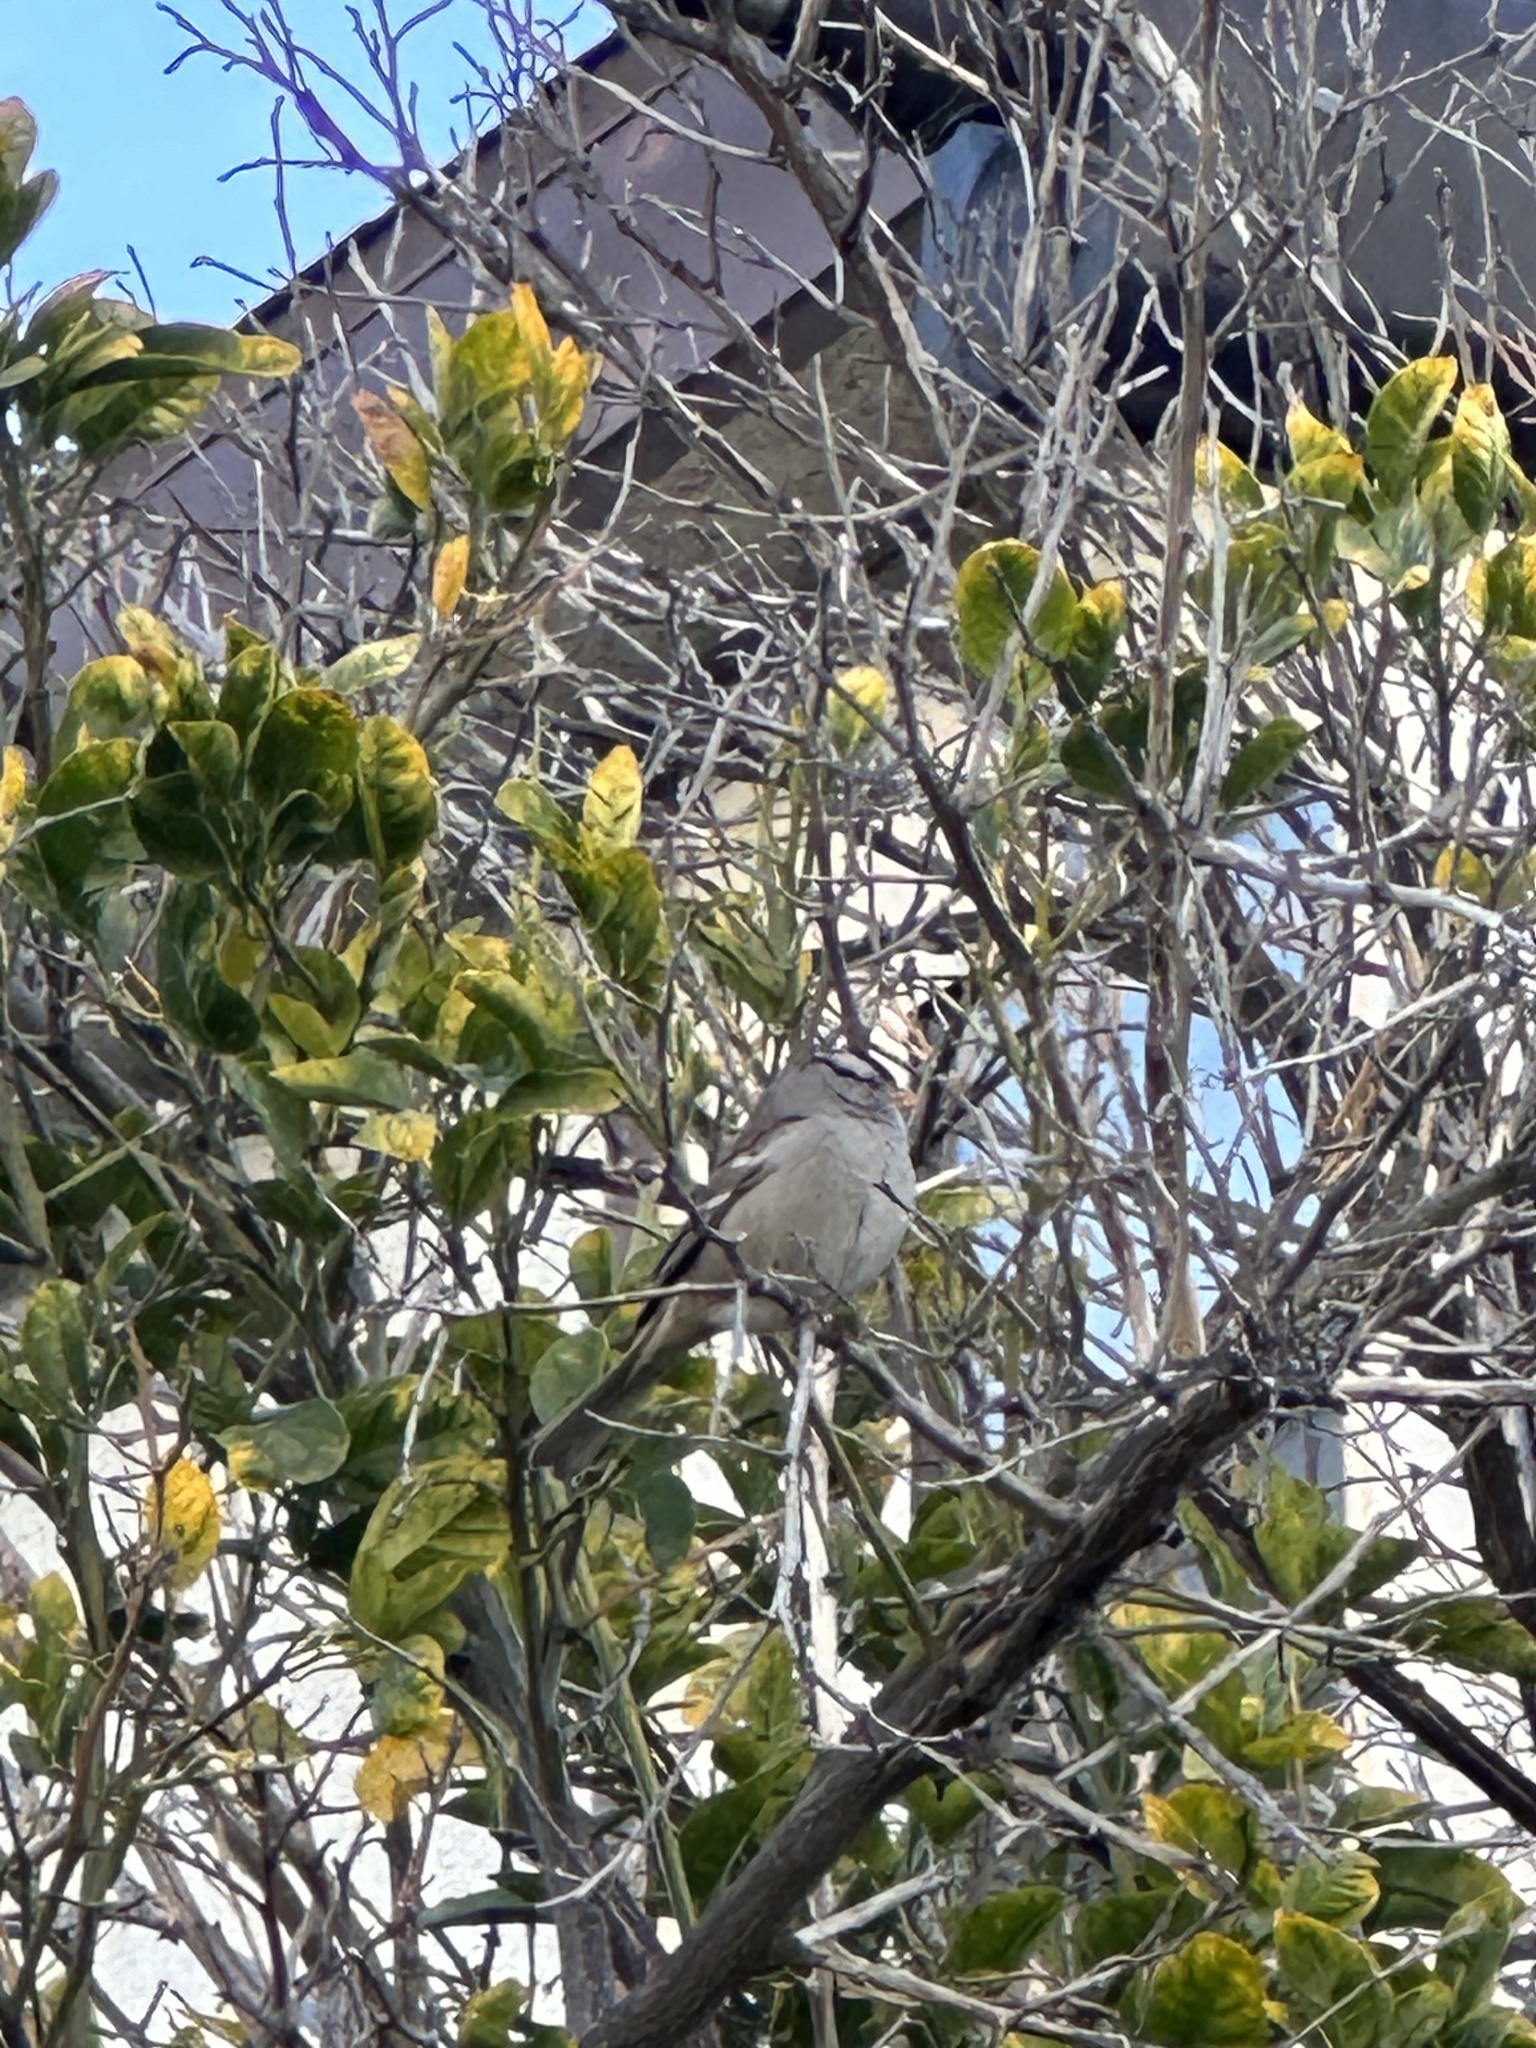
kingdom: Animalia
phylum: Chordata
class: Aves
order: Passeriformes
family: Passerellidae
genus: Zonotrichia
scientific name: Zonotrichia leucophrys
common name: White-crowned sparrow
